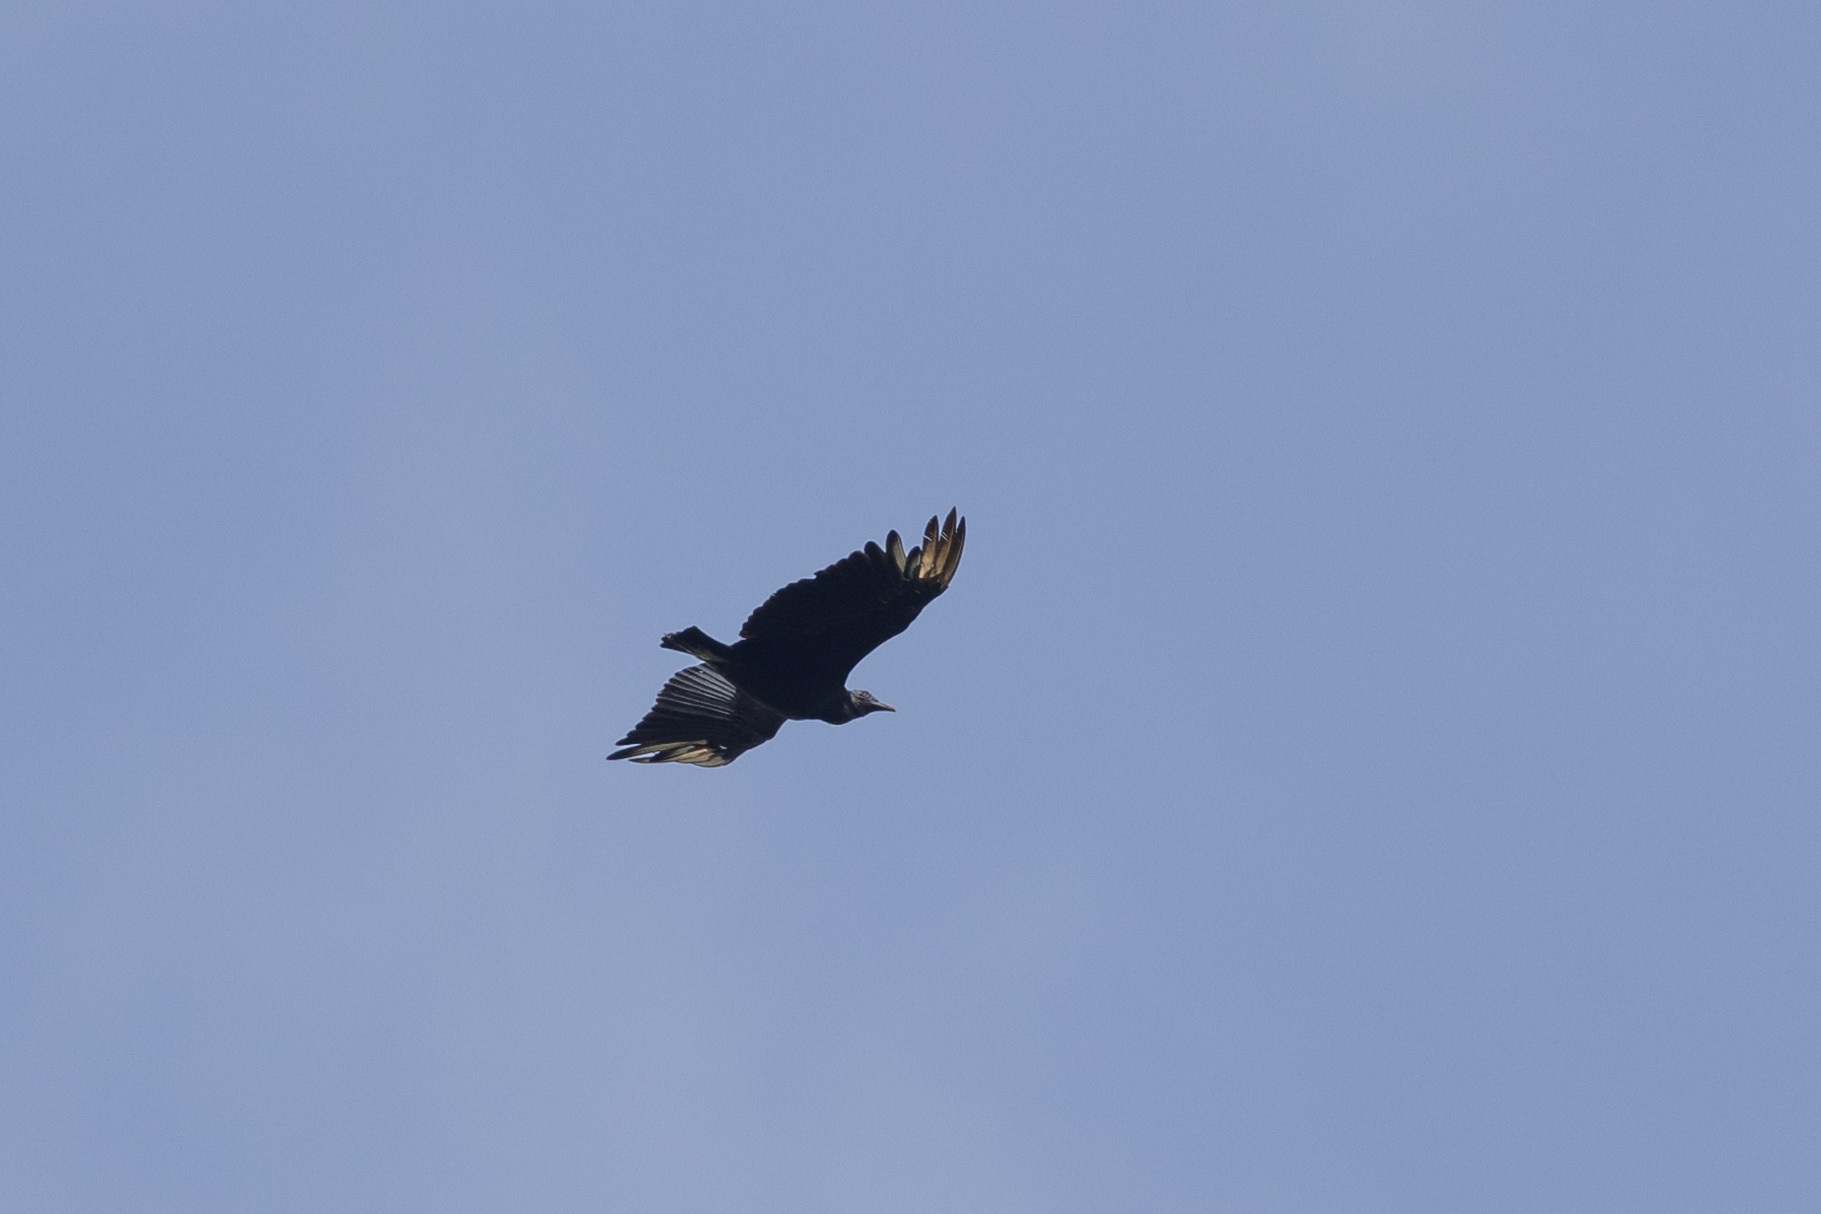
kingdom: Animalia
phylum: Chordata
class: Aves
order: Accipitriformes
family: Cathartidae
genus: Coragyps
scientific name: Coragyps atratus
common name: Black vulture
